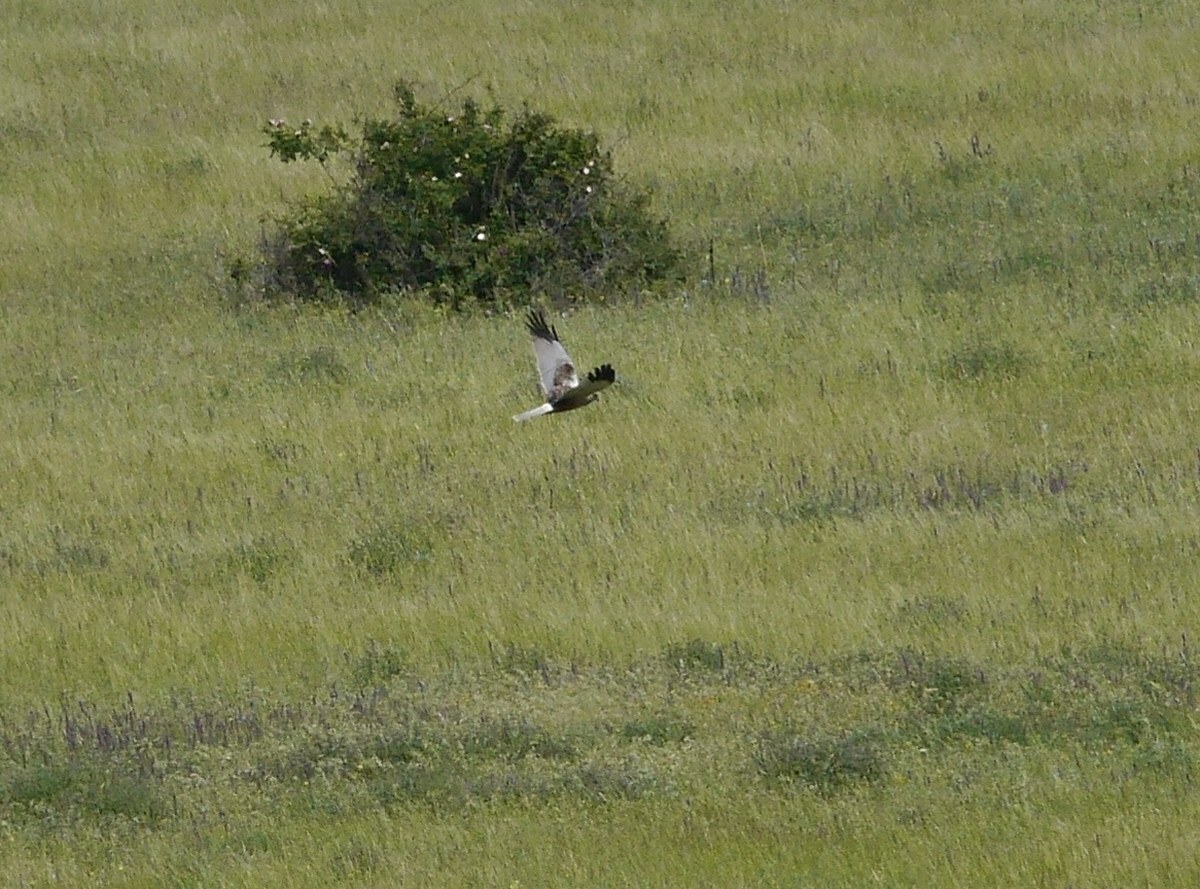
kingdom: Animalia
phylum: Chordata
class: Aves
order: Accipitriformes
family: Accipitridae
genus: Circus
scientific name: Circus aeruginosus
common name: Western marsh harrier
